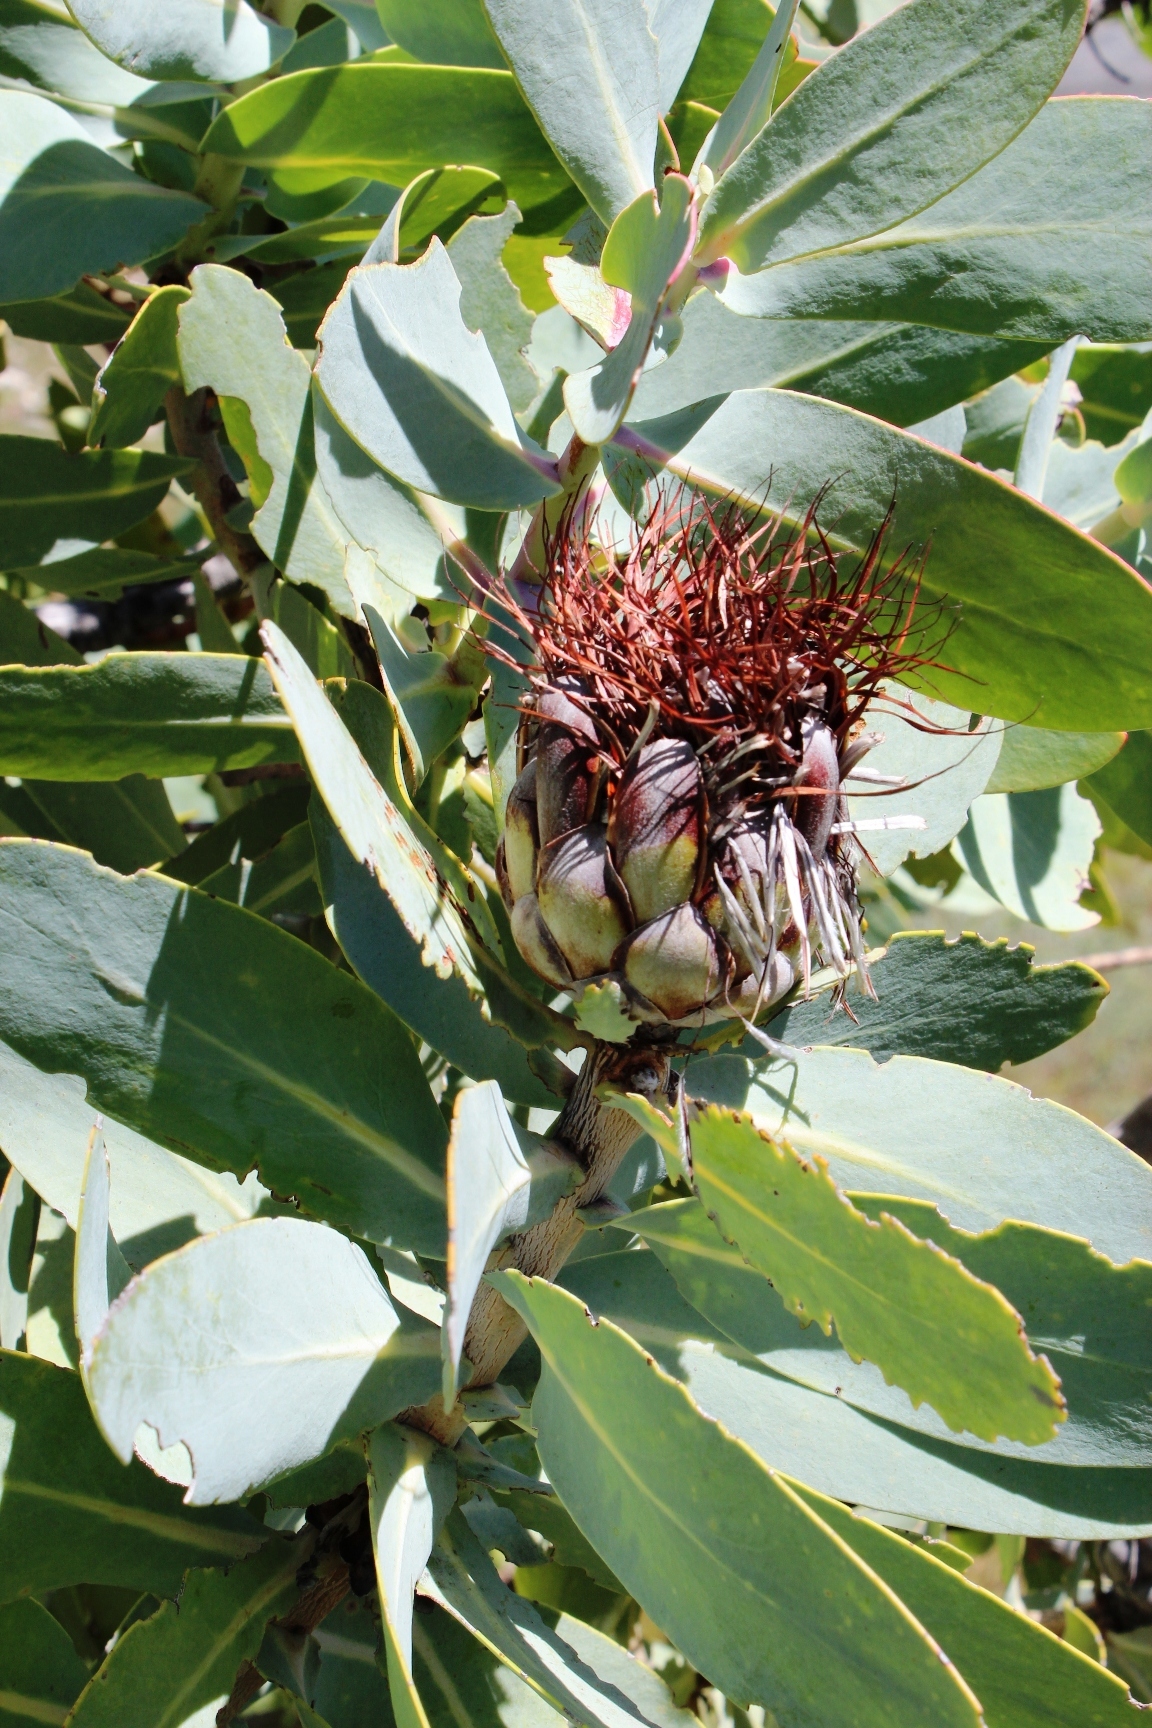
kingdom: Plantae
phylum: Tracheophyta
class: Magnoliopsida
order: Proteales
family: Proteaceae
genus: Protea
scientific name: Protea nitida
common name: Tree protea
